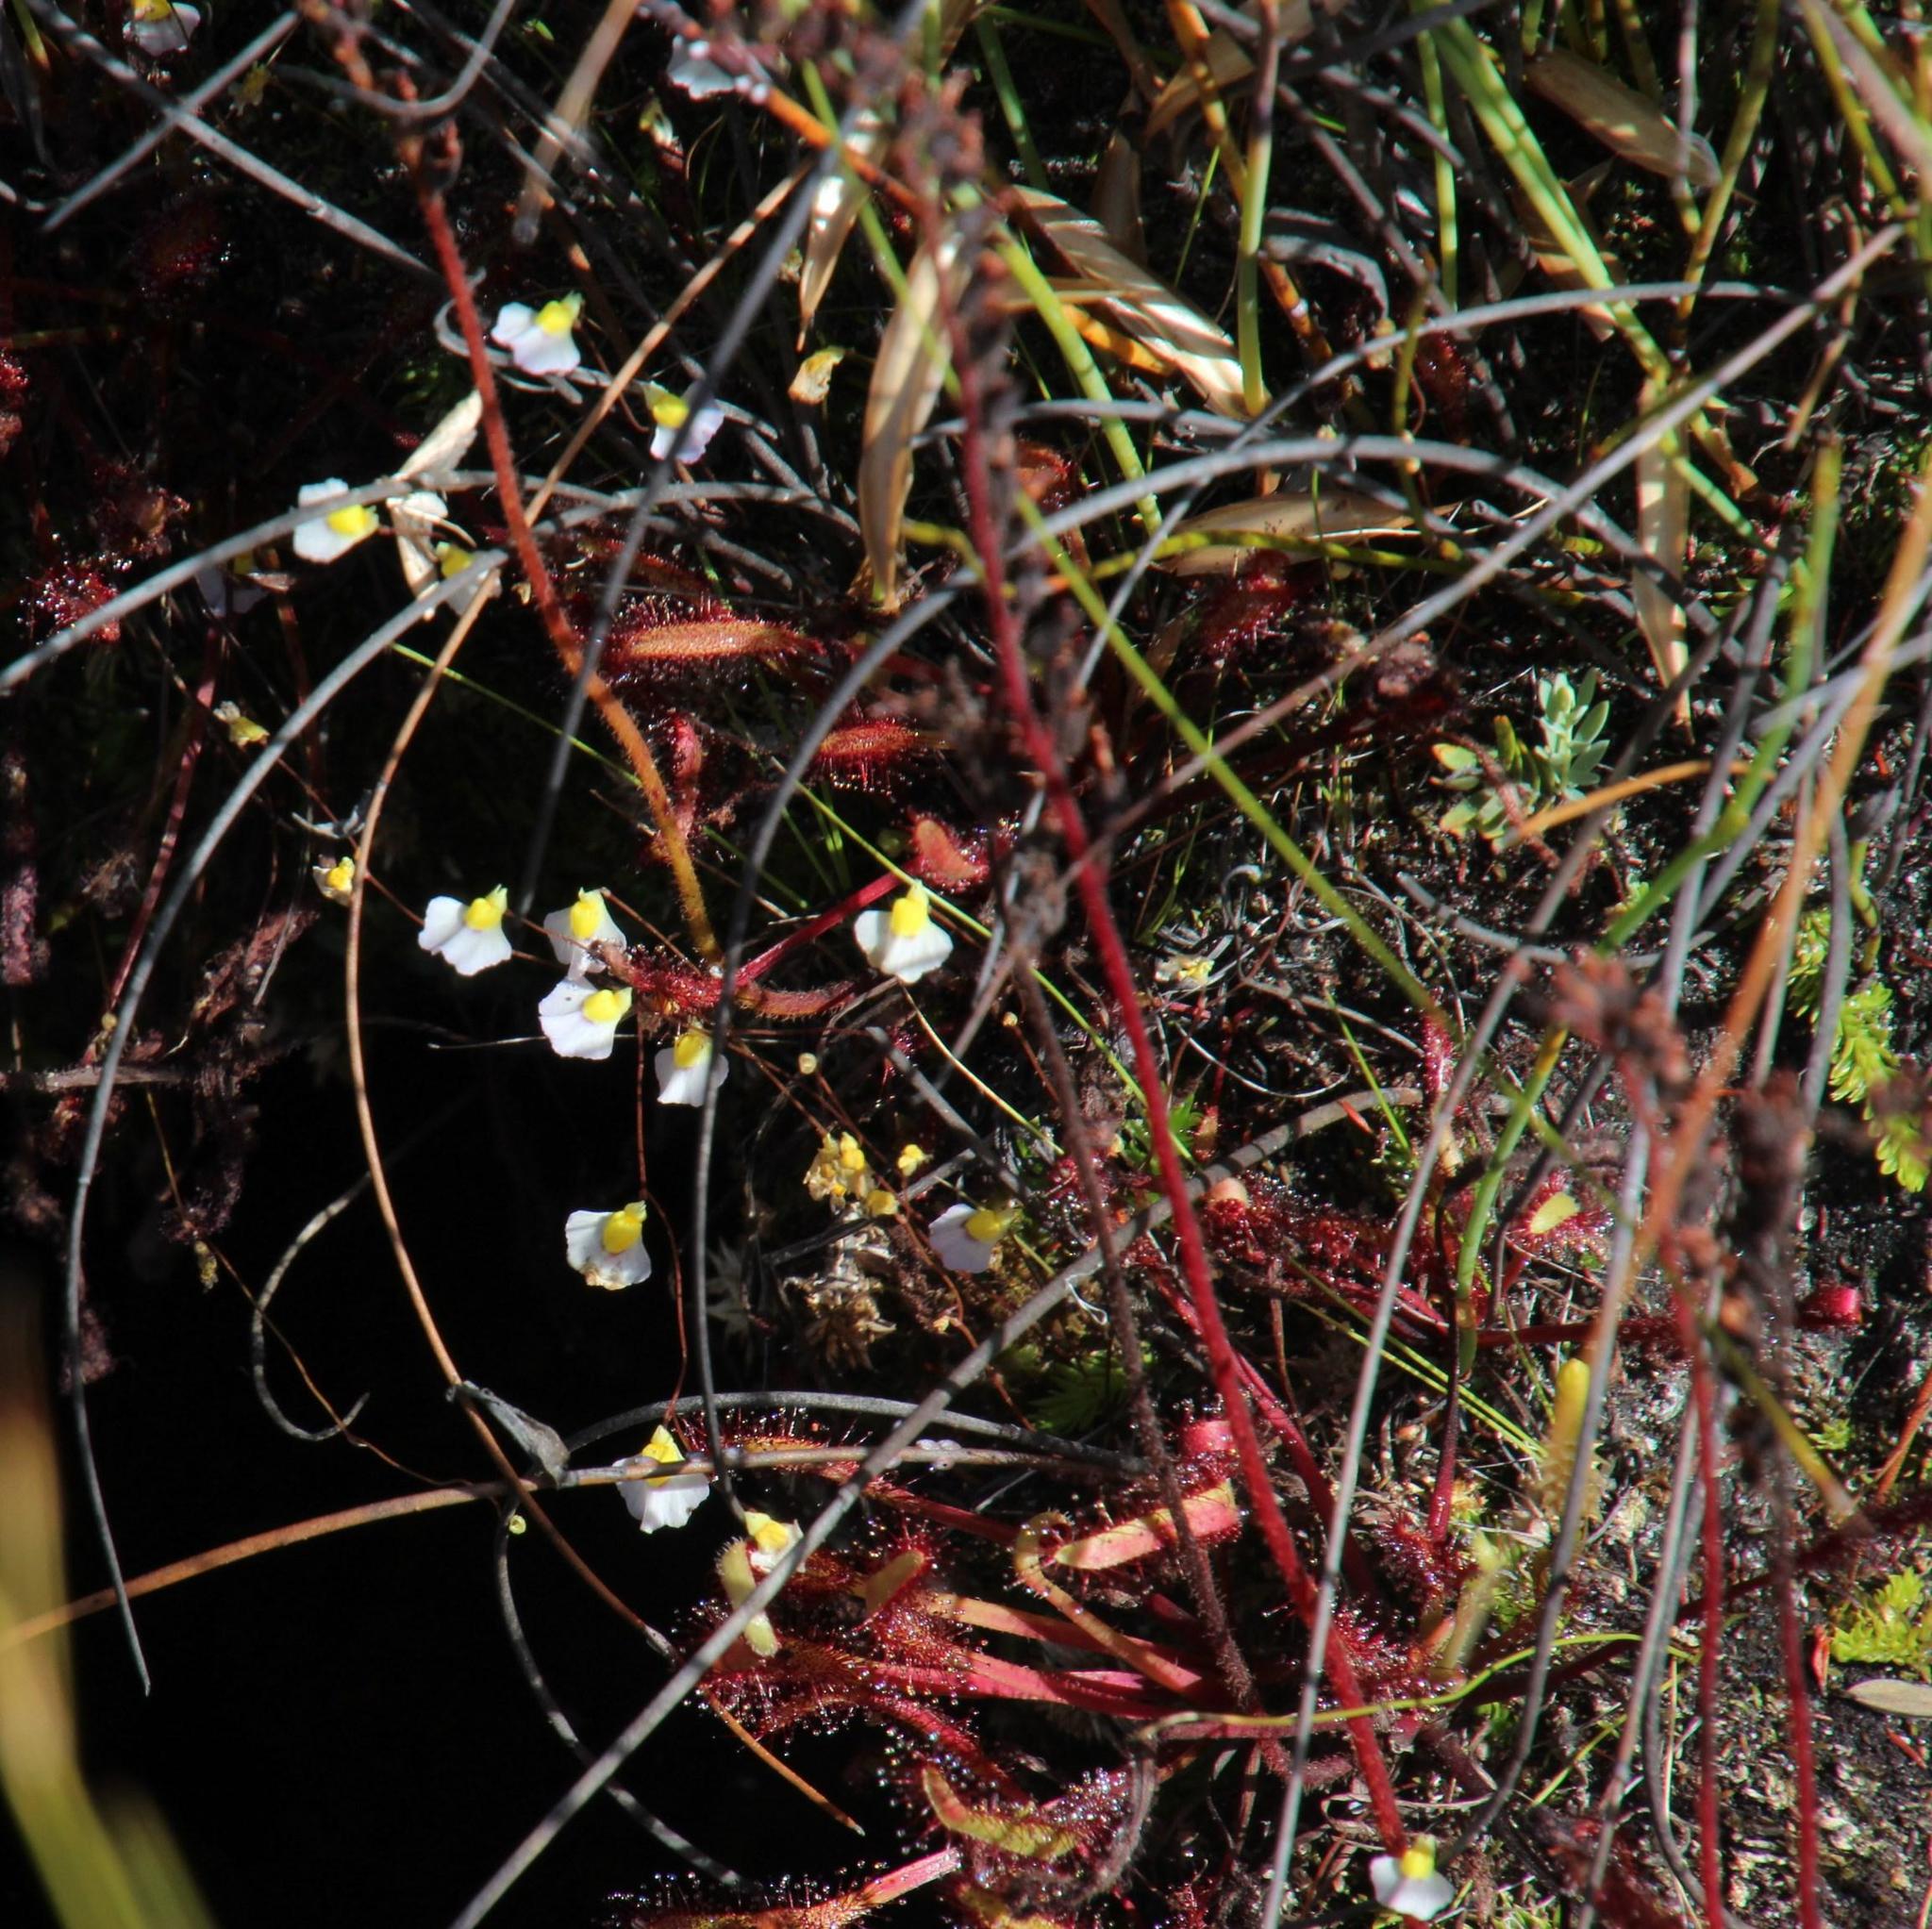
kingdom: Plantae
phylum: Tracheophyta
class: Magnoliopsida
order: Lamiales
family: Lentibulariaceae
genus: Utricularia
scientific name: Utricularia bisquamata
